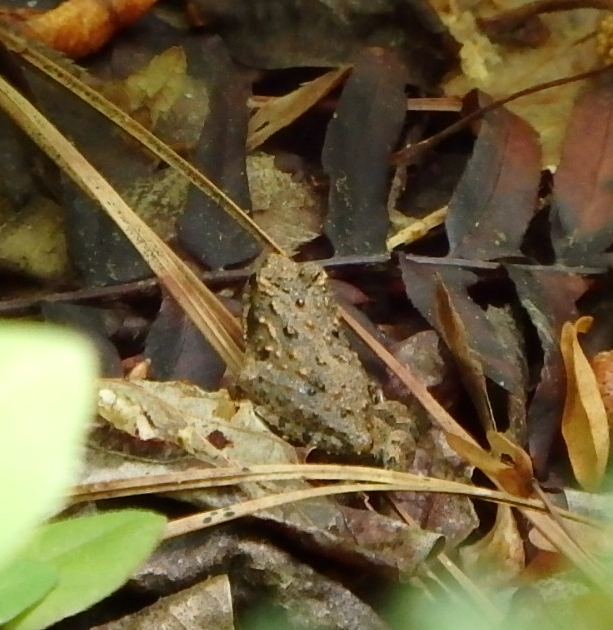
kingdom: Animalia
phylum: Chordata
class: Amphibia
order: Anura
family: Hylidae
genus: Acris
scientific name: Acris crepitans
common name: Northern cricket frog
